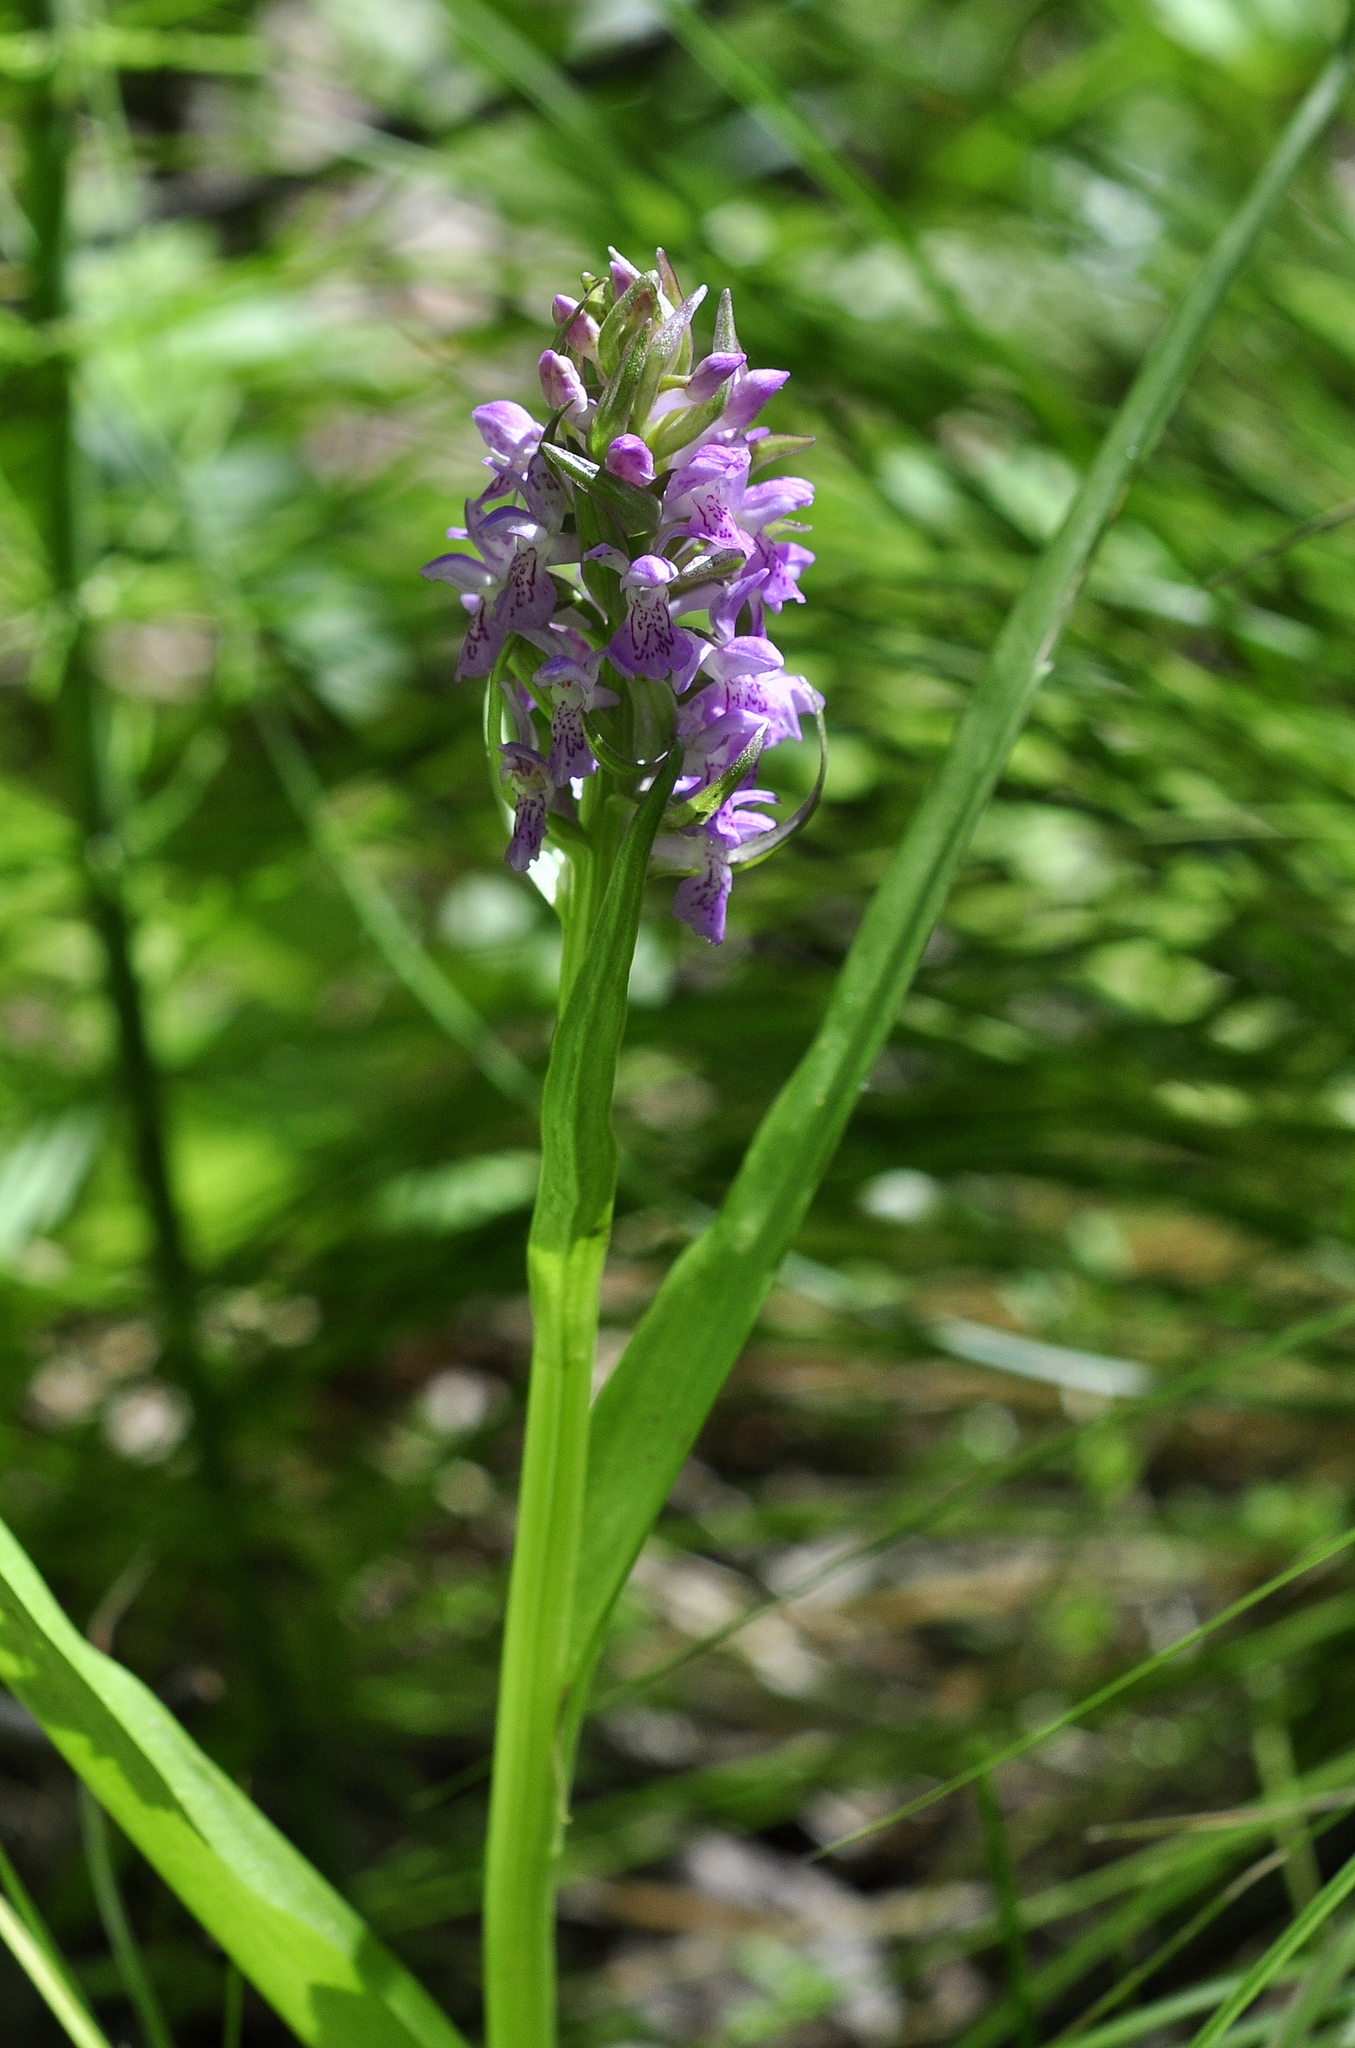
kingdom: Plantae
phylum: Tracheophyta
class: Liliopsida
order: Asparagales
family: Orchidaceae
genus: Dactylorhiza
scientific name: Dactylorhiza incarnata
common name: Early marsh-orchid
